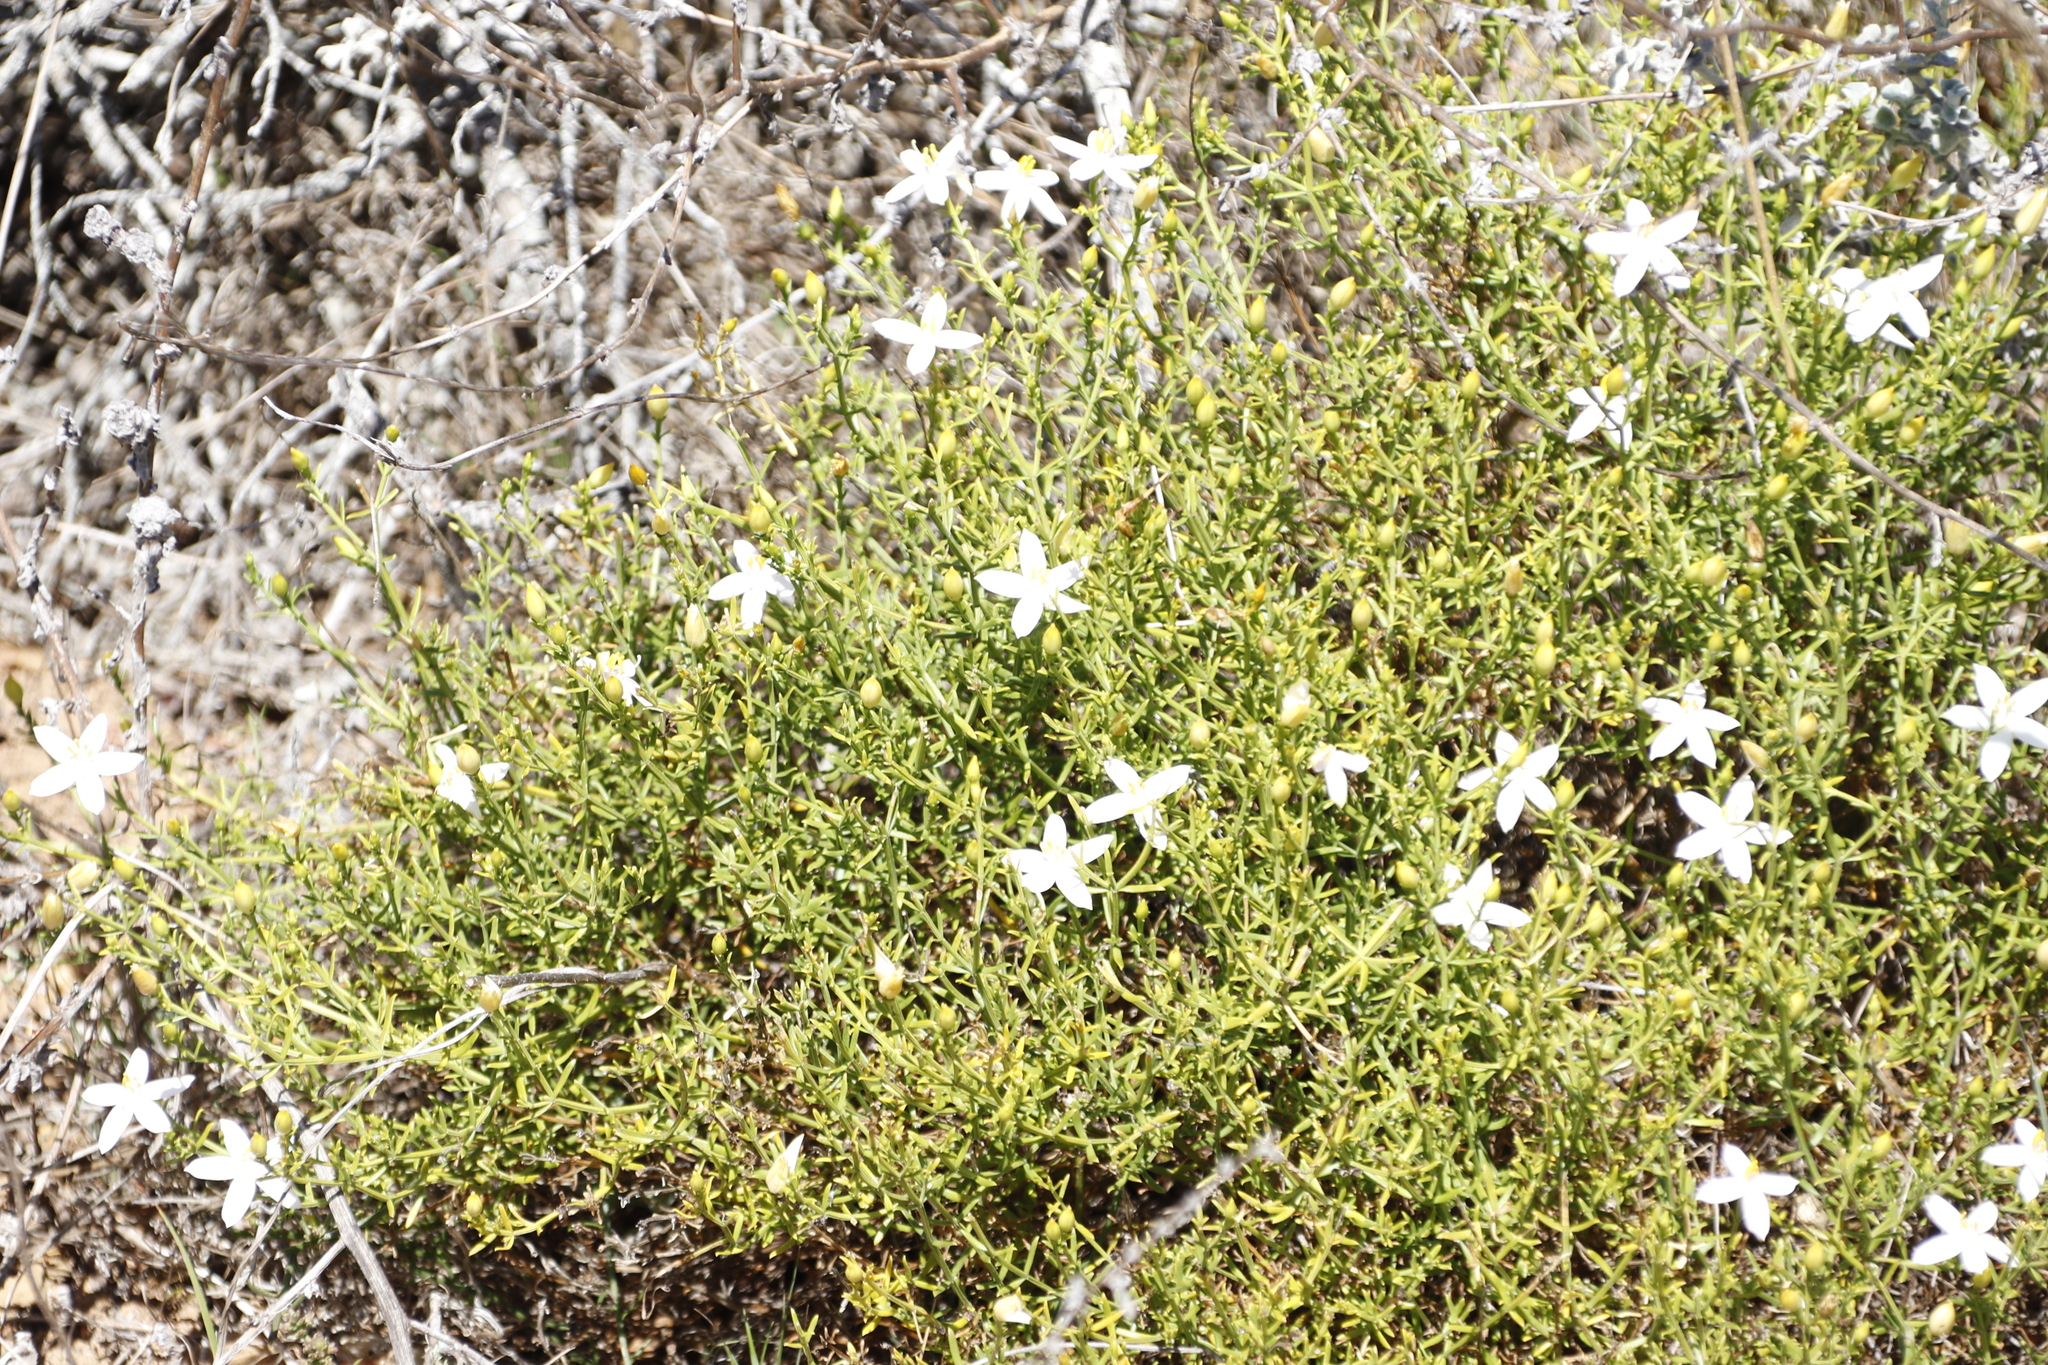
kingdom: Plantae
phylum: Tracheophyta
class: Magnoliopsida
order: Gentianales
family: Gentianaceae
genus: Chironia
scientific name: Chironia baccifera
